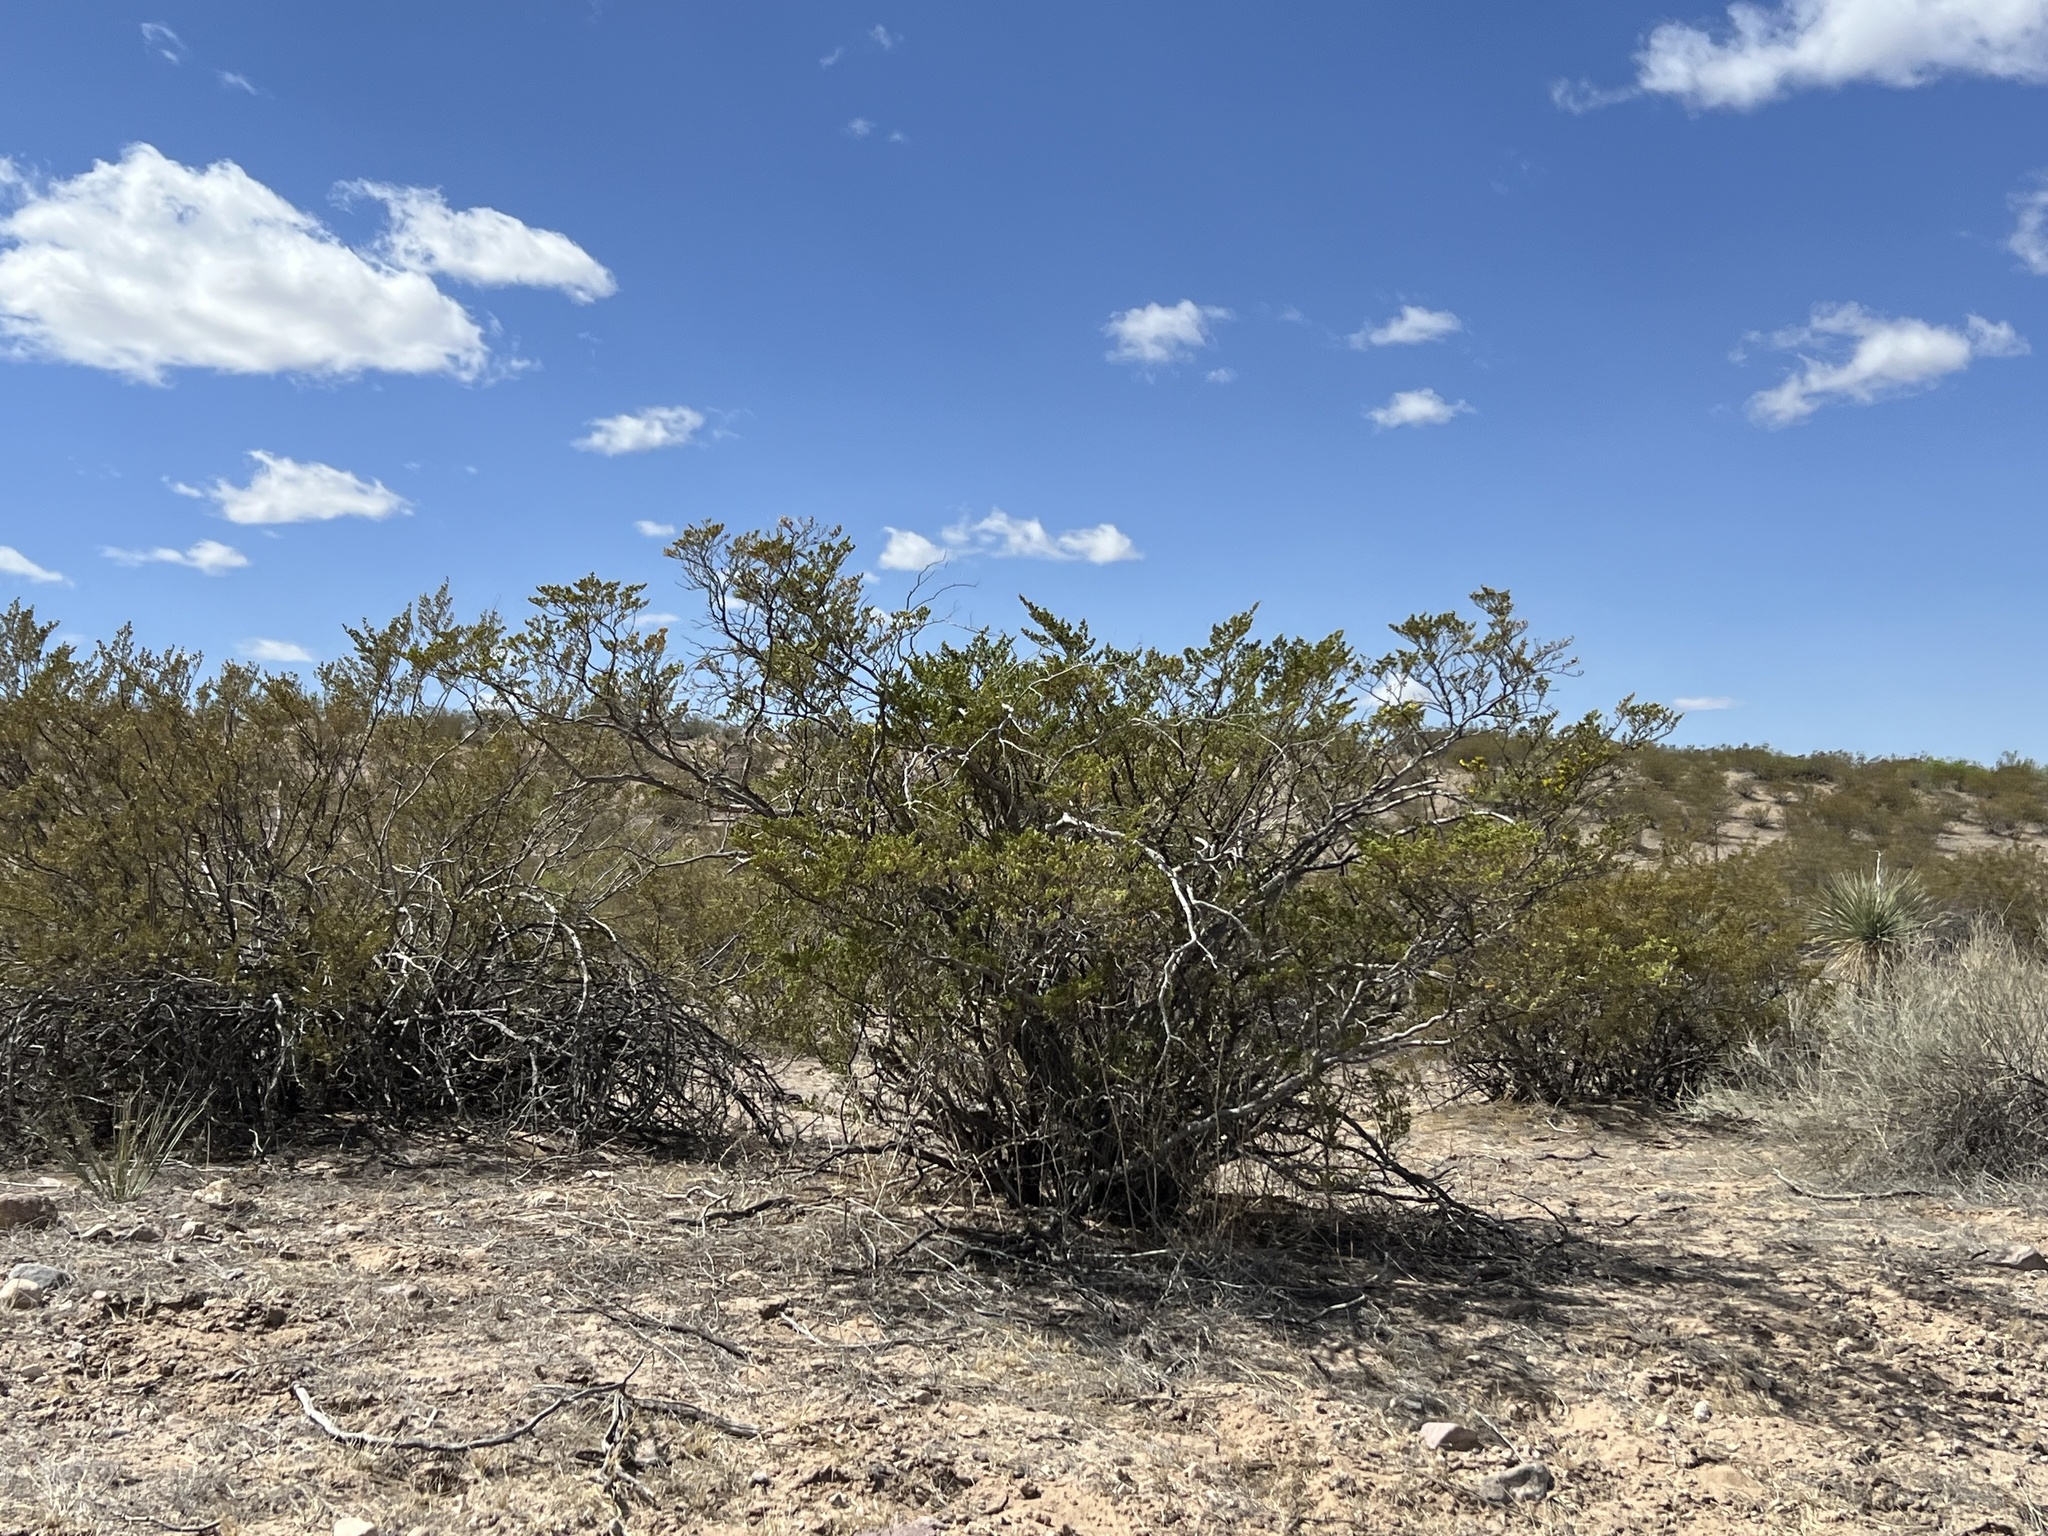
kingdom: Plantae
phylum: Tracheophyta
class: Magnoliopsida
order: Zygophyllales
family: Zygophyllaceae
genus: Larrea
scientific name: Larrea tridentata
